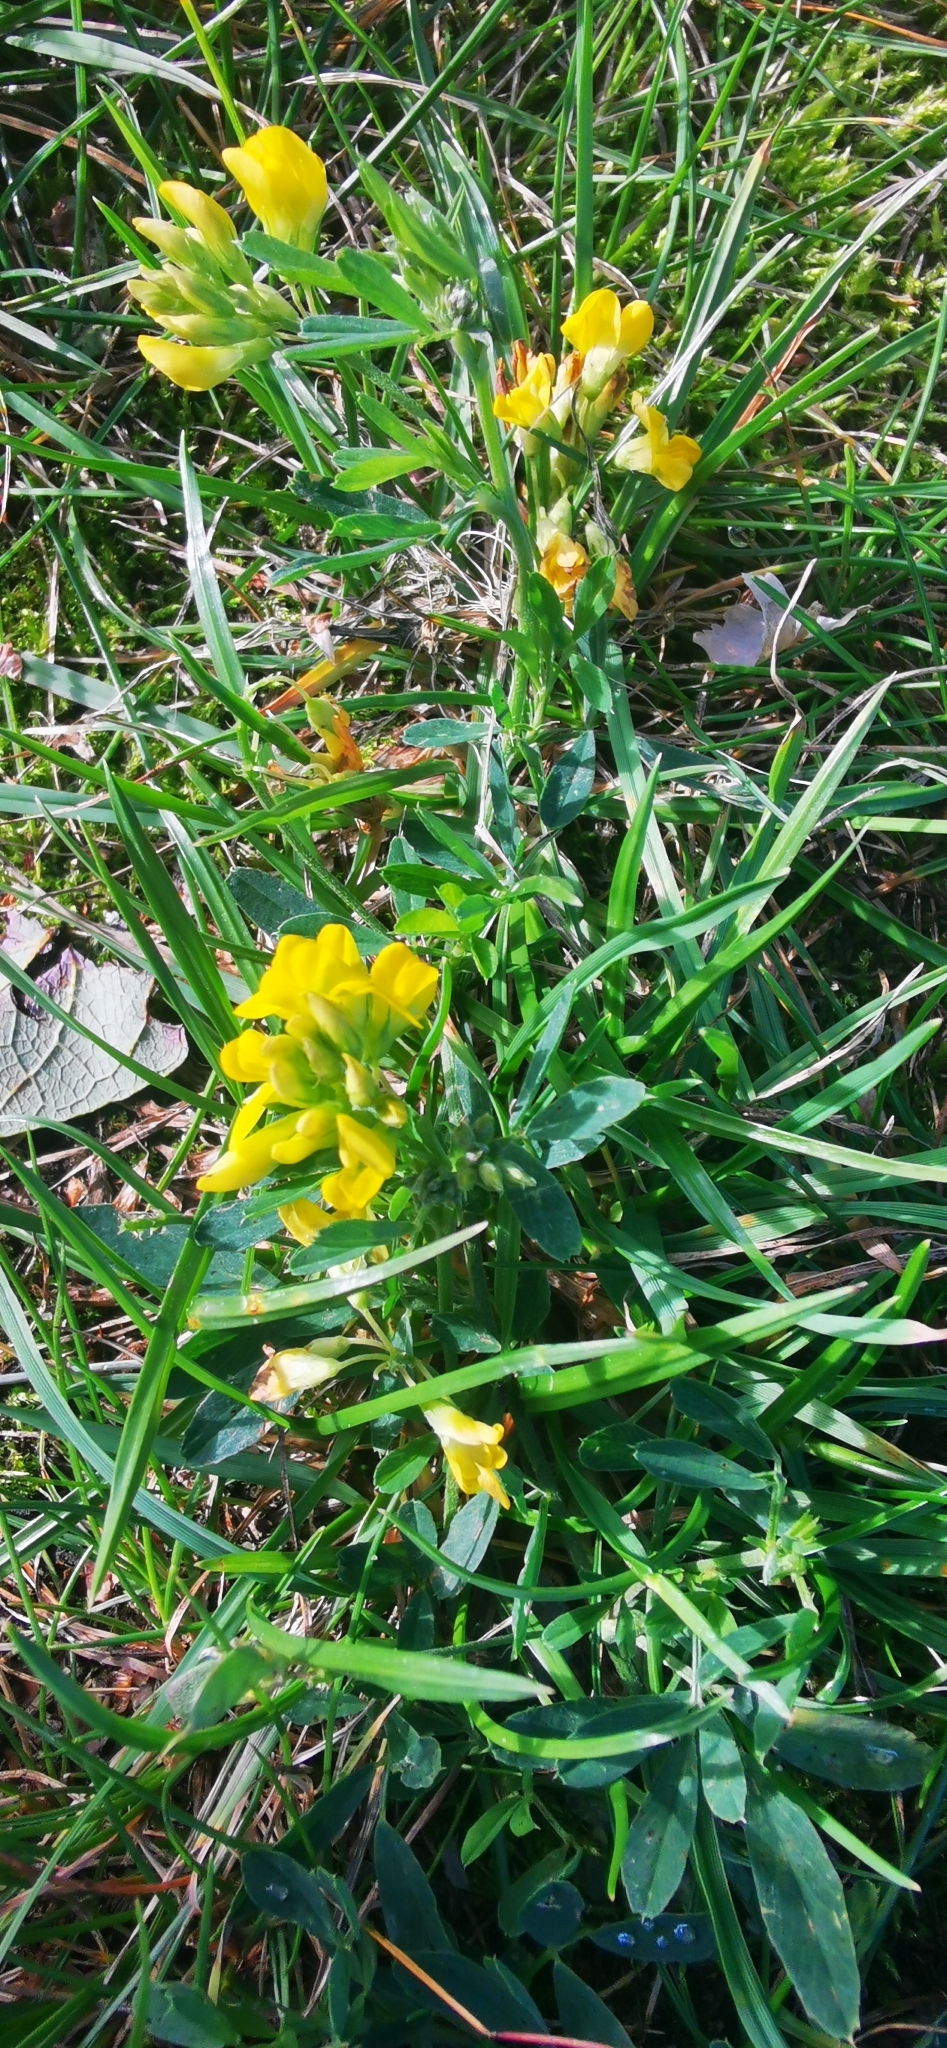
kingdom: Plantae
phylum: Tracheophyta
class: Magnoliopsida
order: Fabales
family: Fabaceae
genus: Medicago
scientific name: Medicago falcata
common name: Sickle medick
